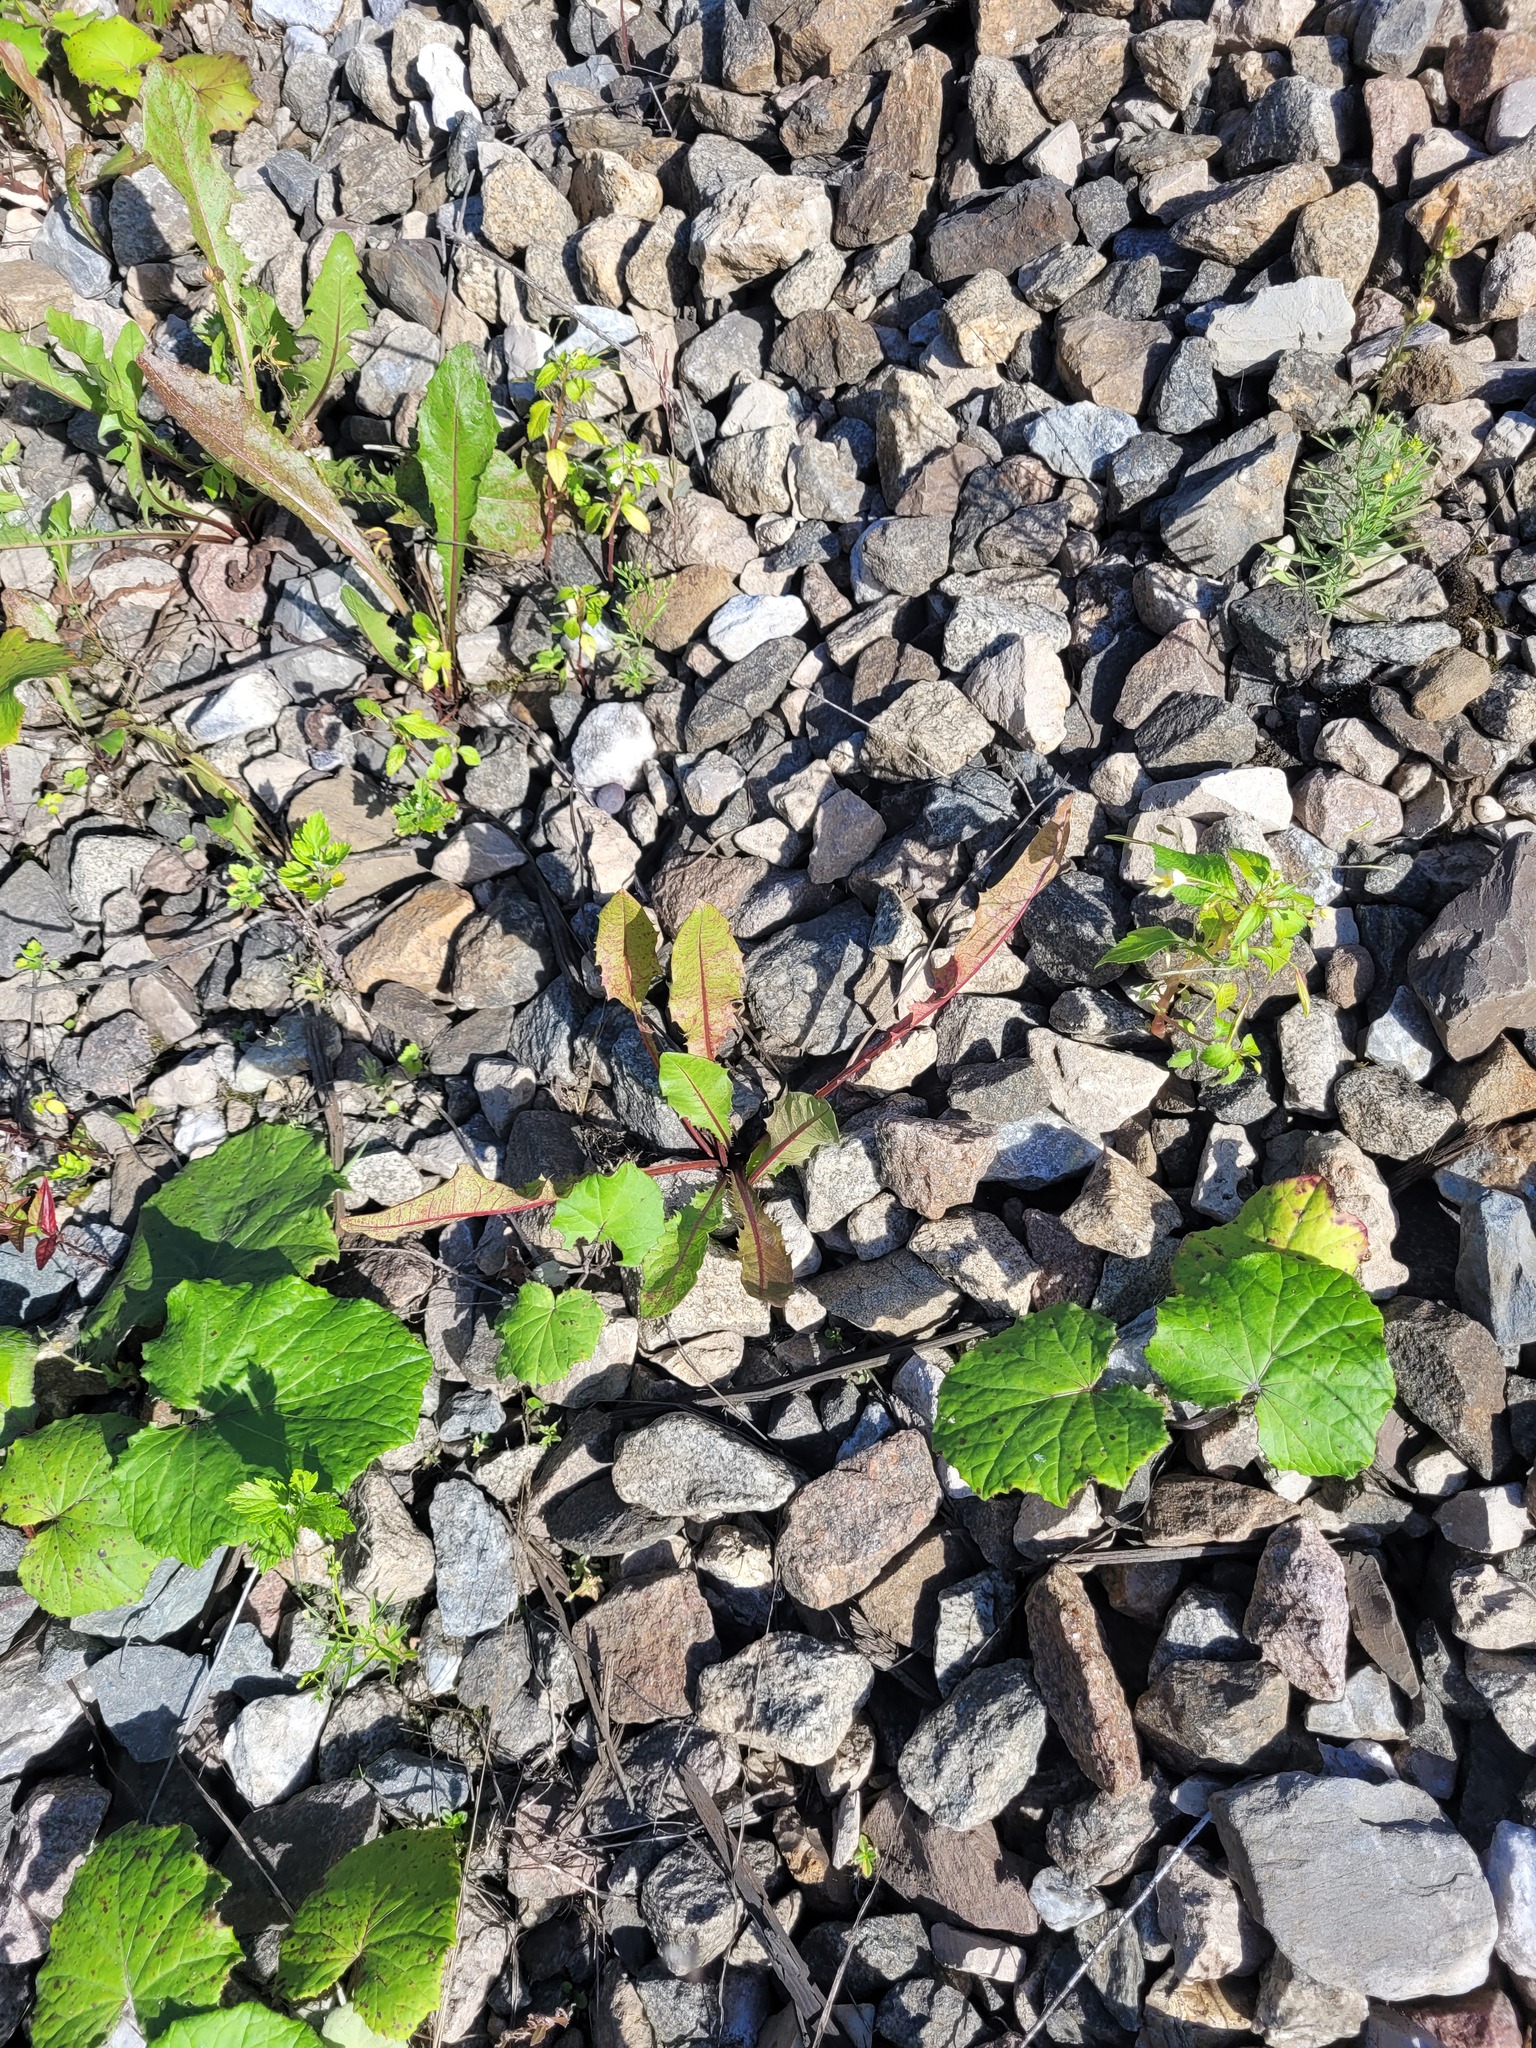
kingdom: Plantae
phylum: Tracheophyta
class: Magnoliopsida
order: Asterales
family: Asteraceae
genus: Taraxacum
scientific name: Taraxacum officinale
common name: Common dandelion
